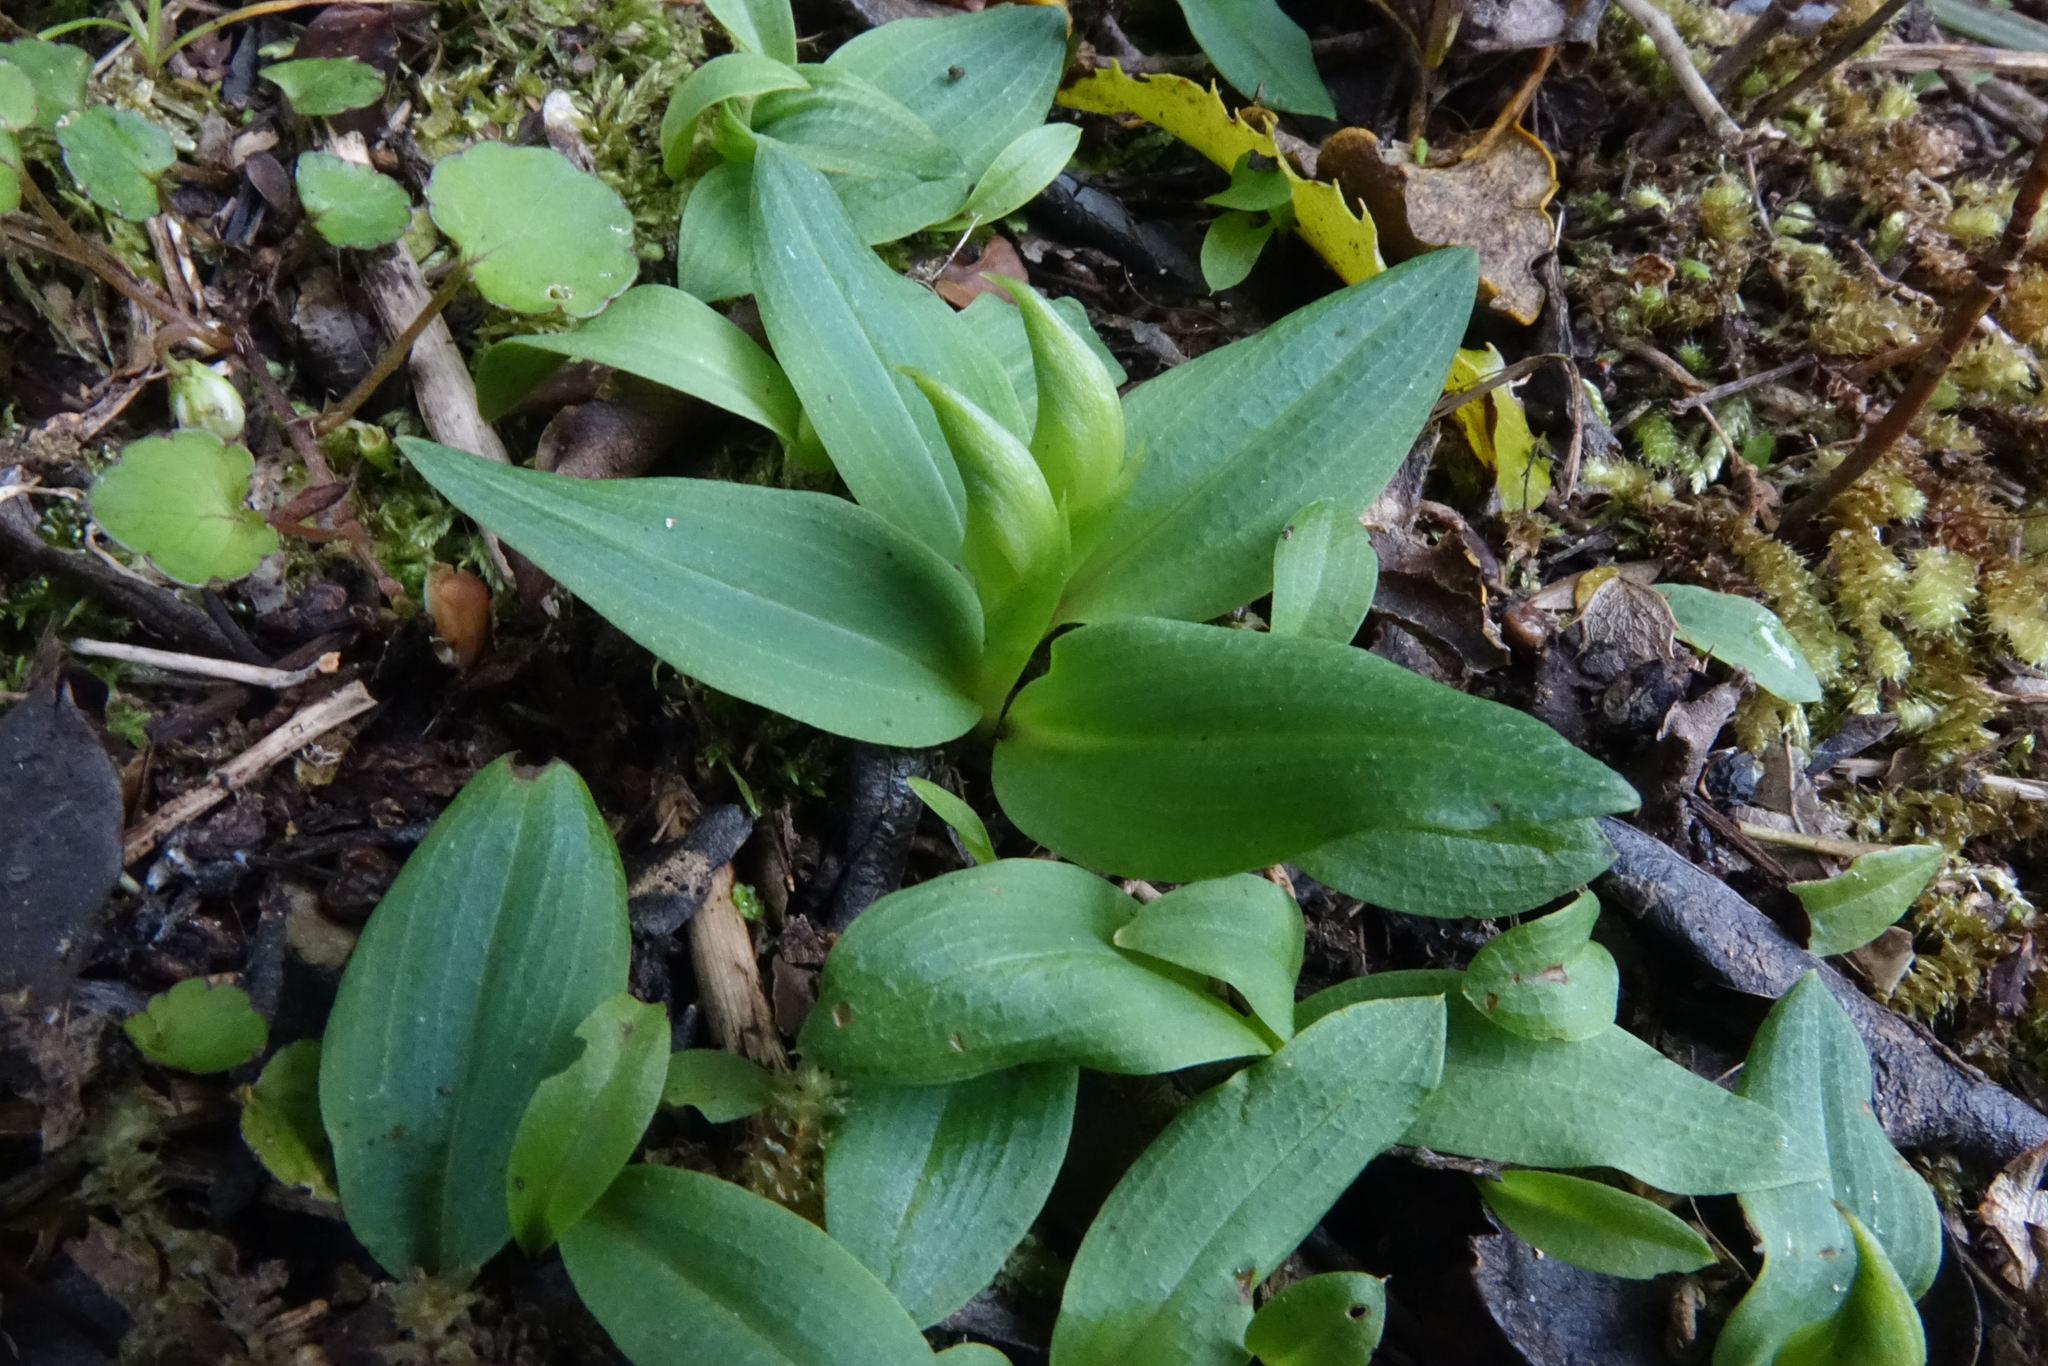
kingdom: Plantae
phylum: Tracheophyta
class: Liliopsida
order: Asparagales
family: Orchidaceae
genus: Chiloglottis
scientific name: Chiloglottis cornuta
